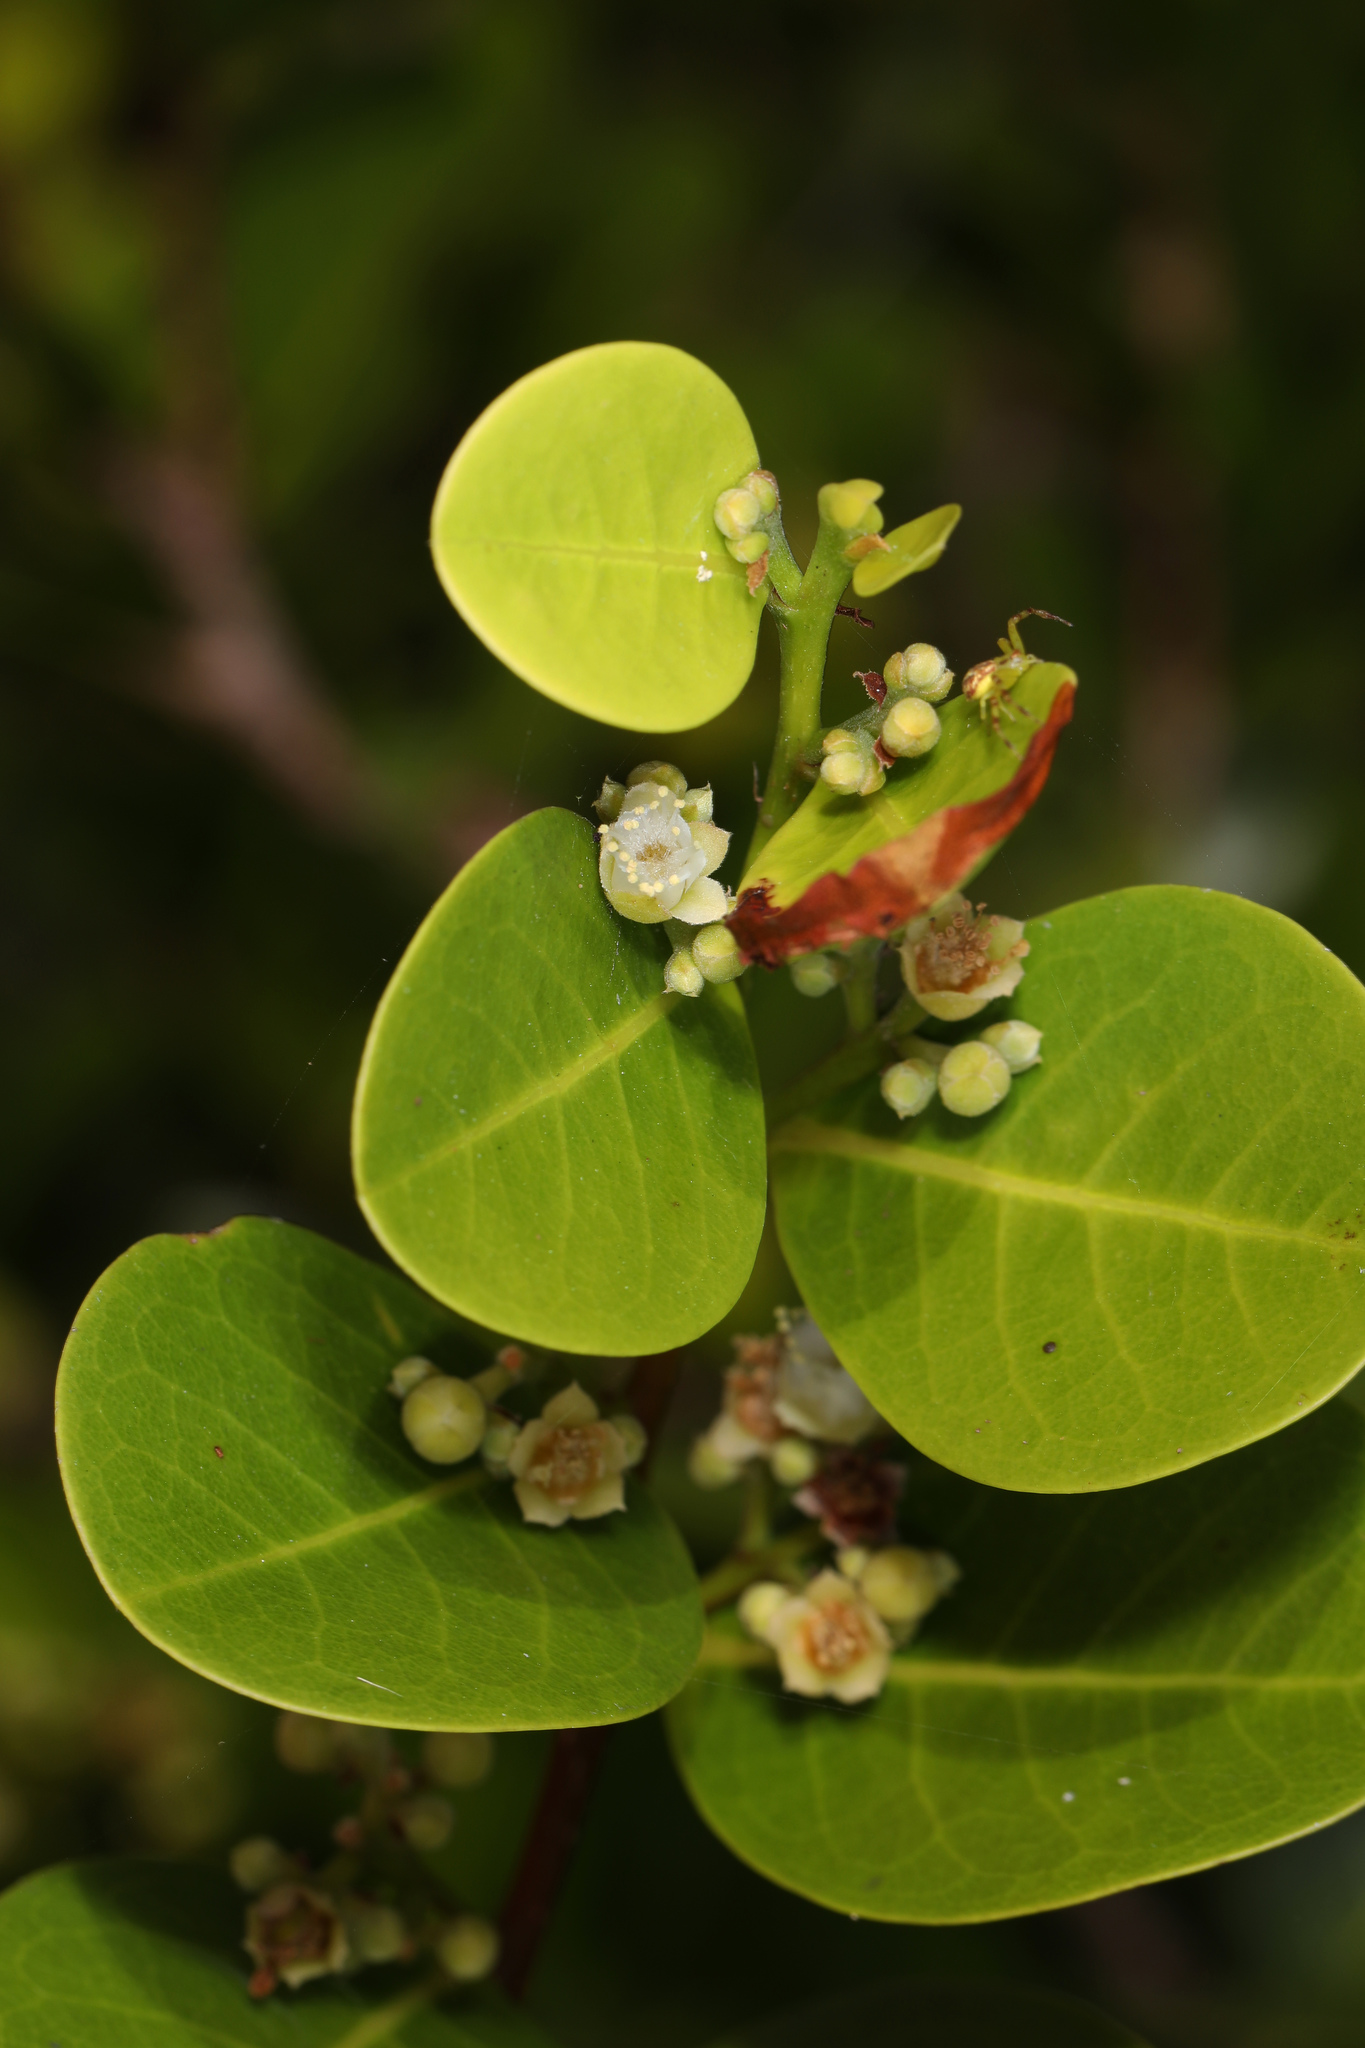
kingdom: Plantae
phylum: Tracheophyta
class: Magnoliopsida
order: Malpighiales
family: Chrysobalanaceae
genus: Chrysobalanus
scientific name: Chrysobalanus icaco
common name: Coco plum
